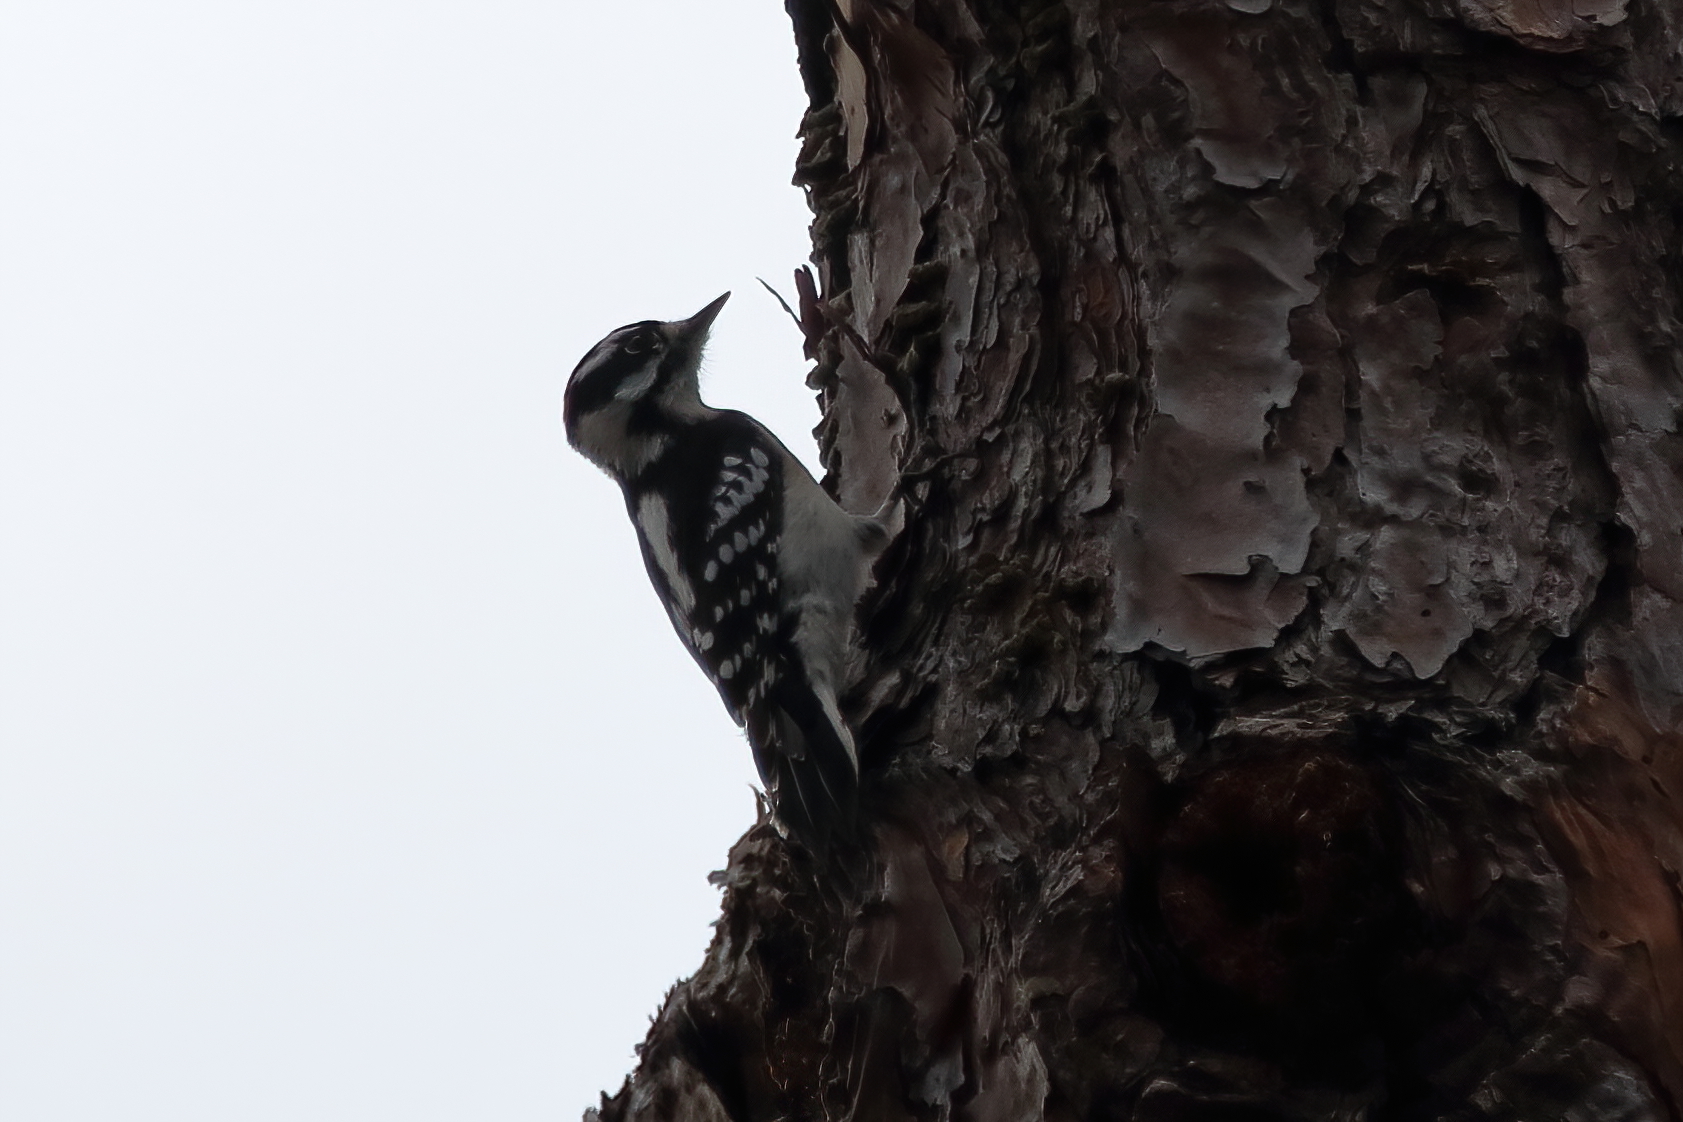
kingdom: Animalia
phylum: Chordata
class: Aves
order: Piciformes
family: Picidae
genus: Dryobates
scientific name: Dryobates pubescens
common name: Downy woodpecker
